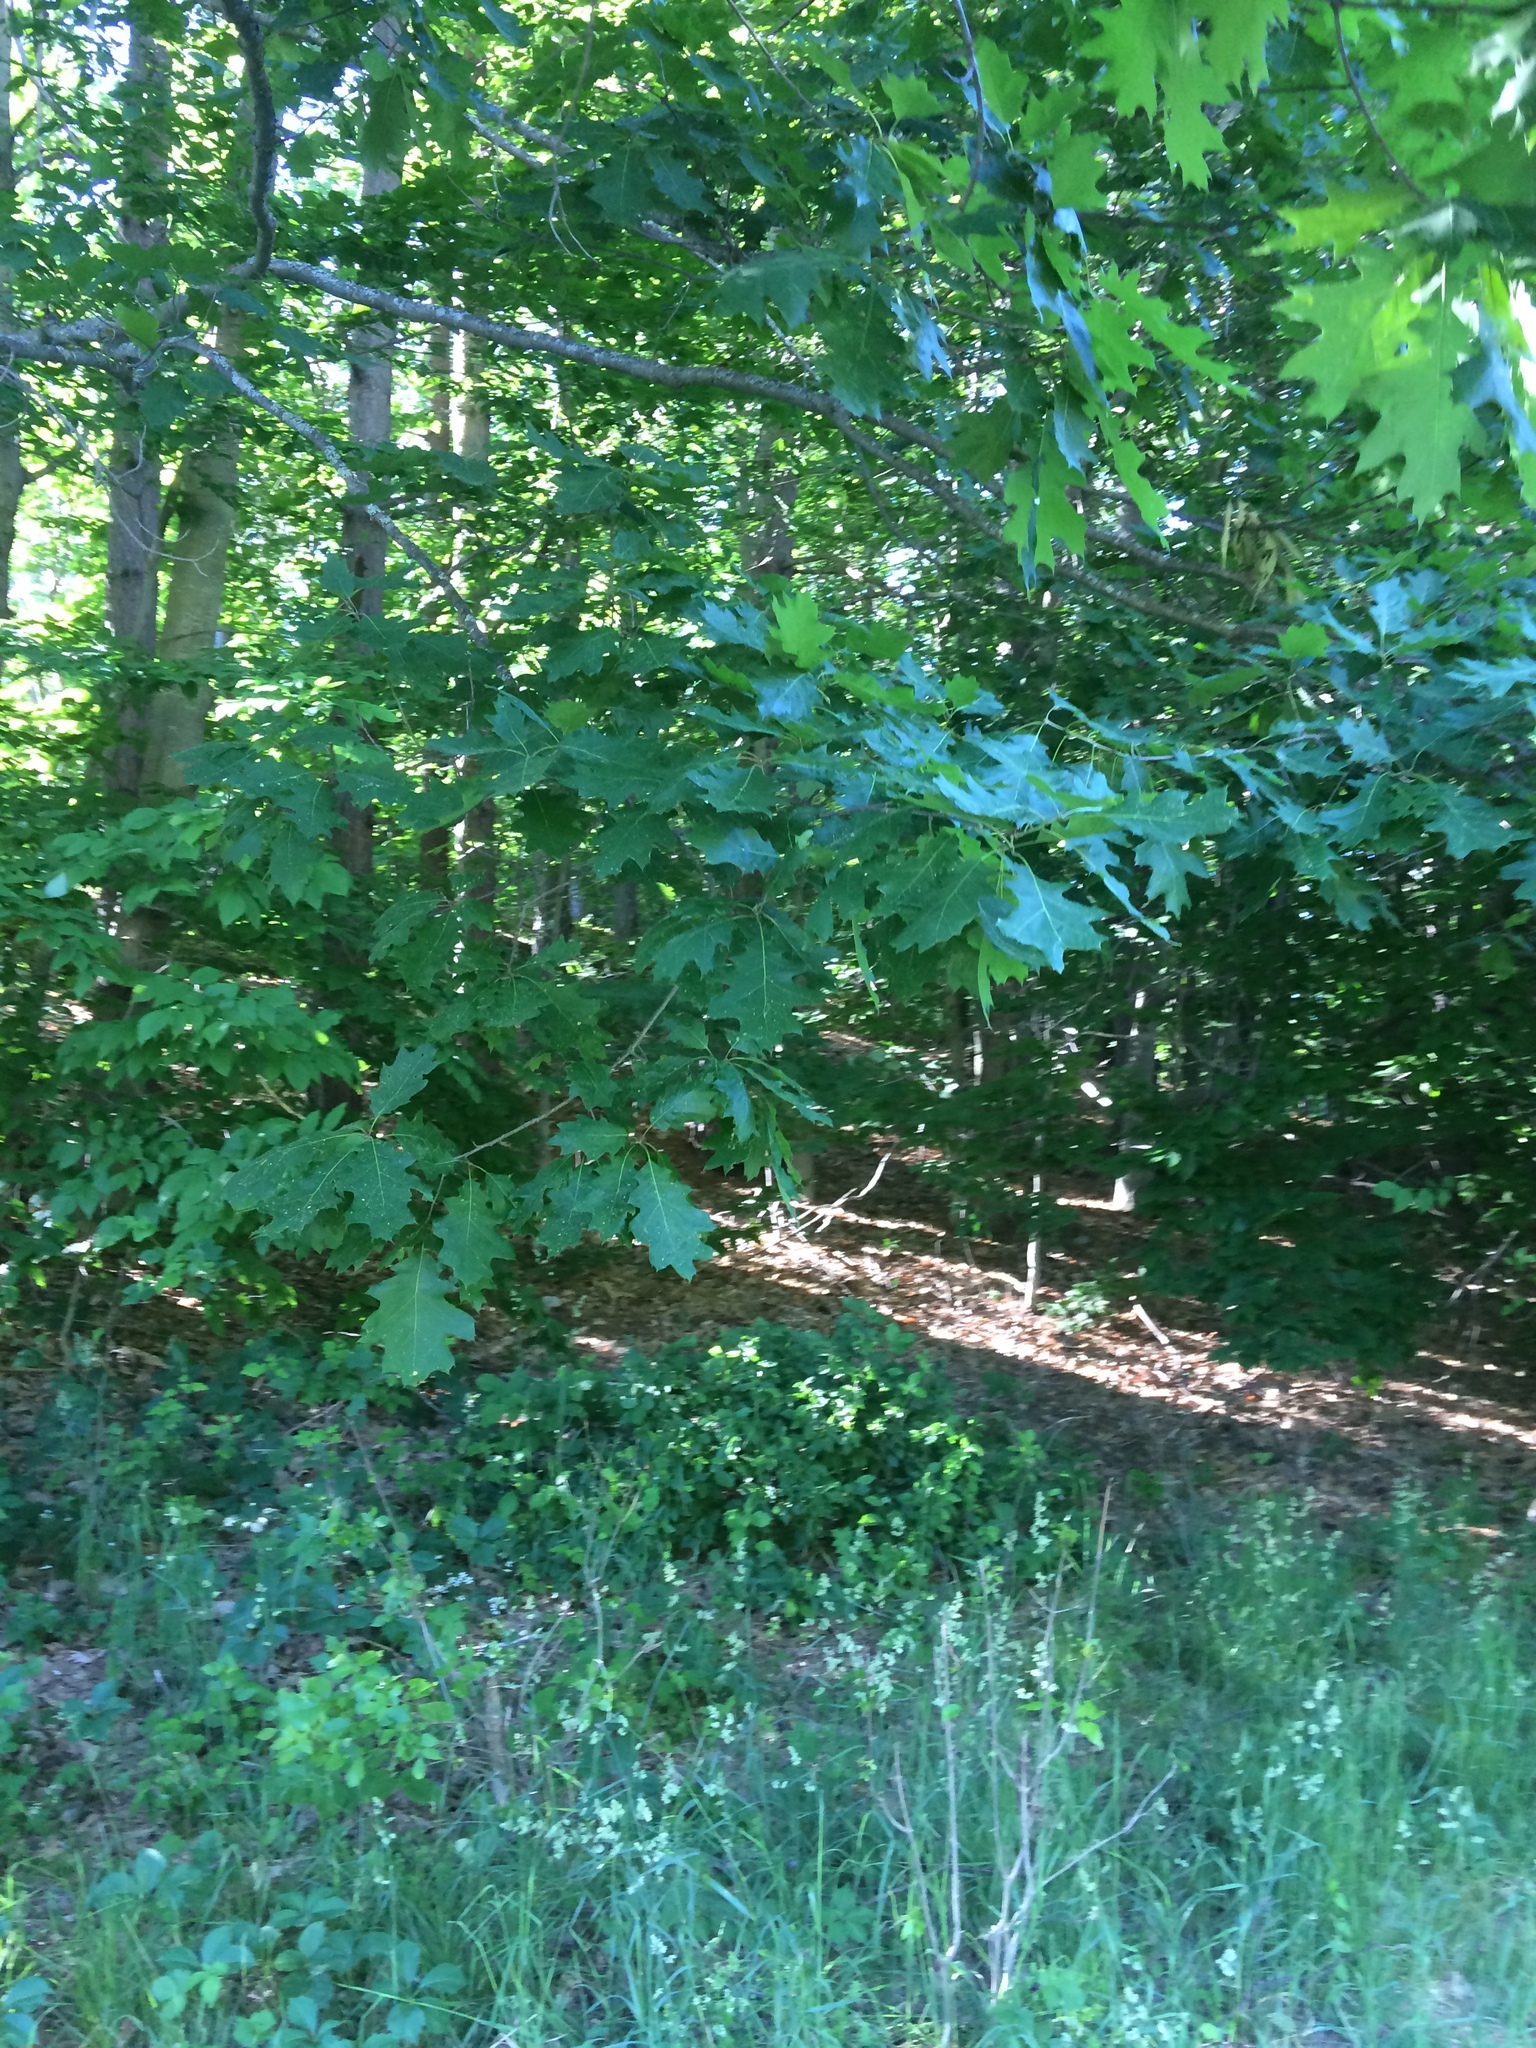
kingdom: Plantae
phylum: Tracheophyta
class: Magnoliopsida
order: Fagales
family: Fagaceae
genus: Quercus
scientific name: Quercus rubra
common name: Red oak
